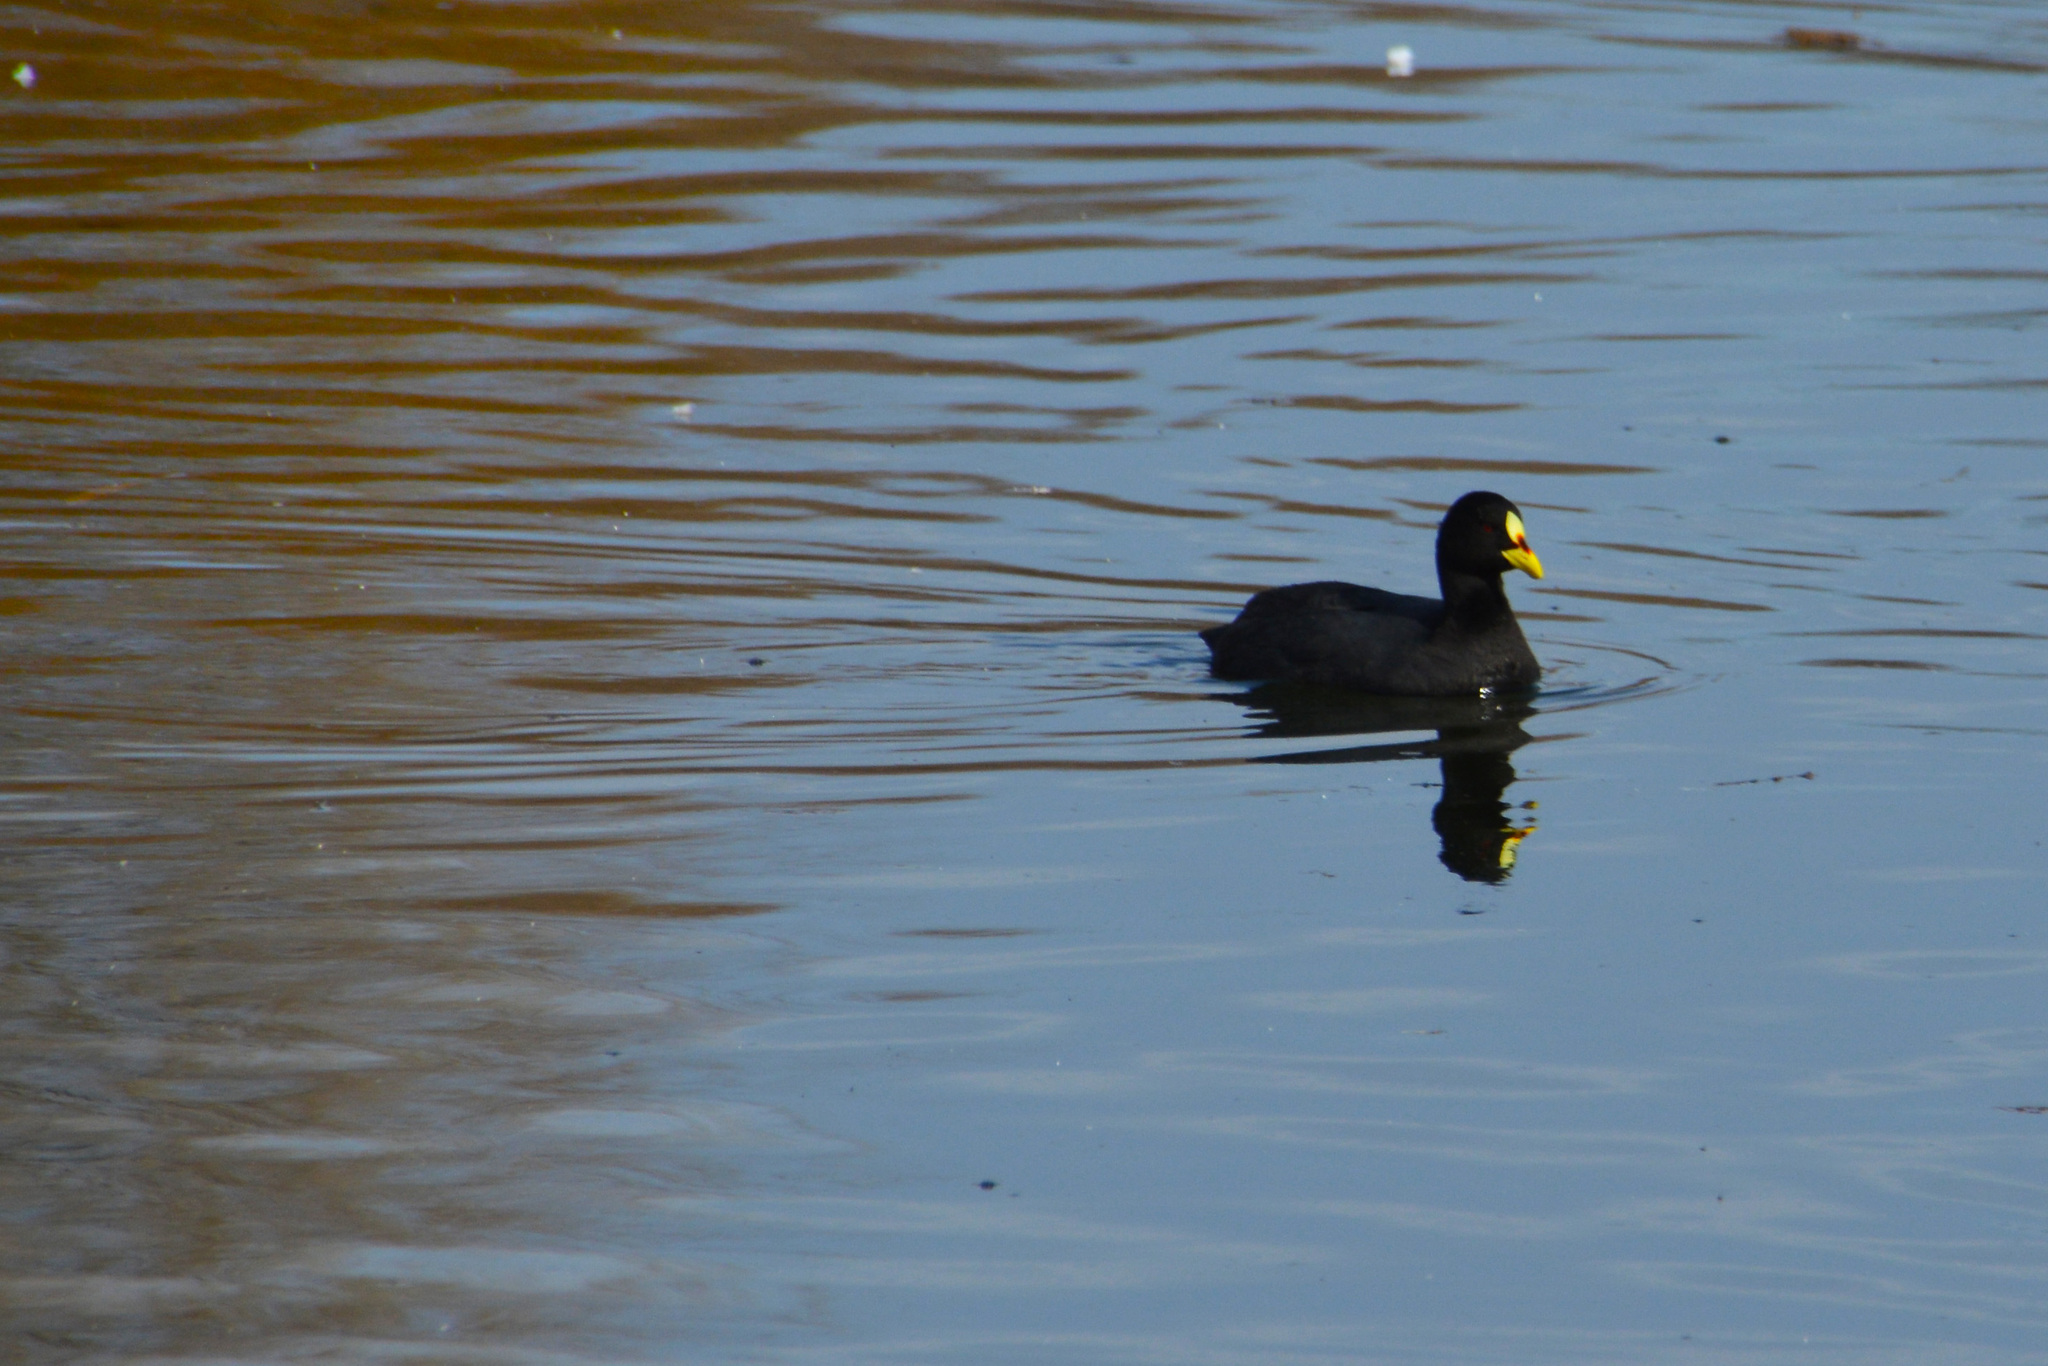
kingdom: Animalia
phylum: Chordata
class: Aves
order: Gruiformes
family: Rallidae
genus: Fulica
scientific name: Fulica armillata
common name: Red-gartered coot
